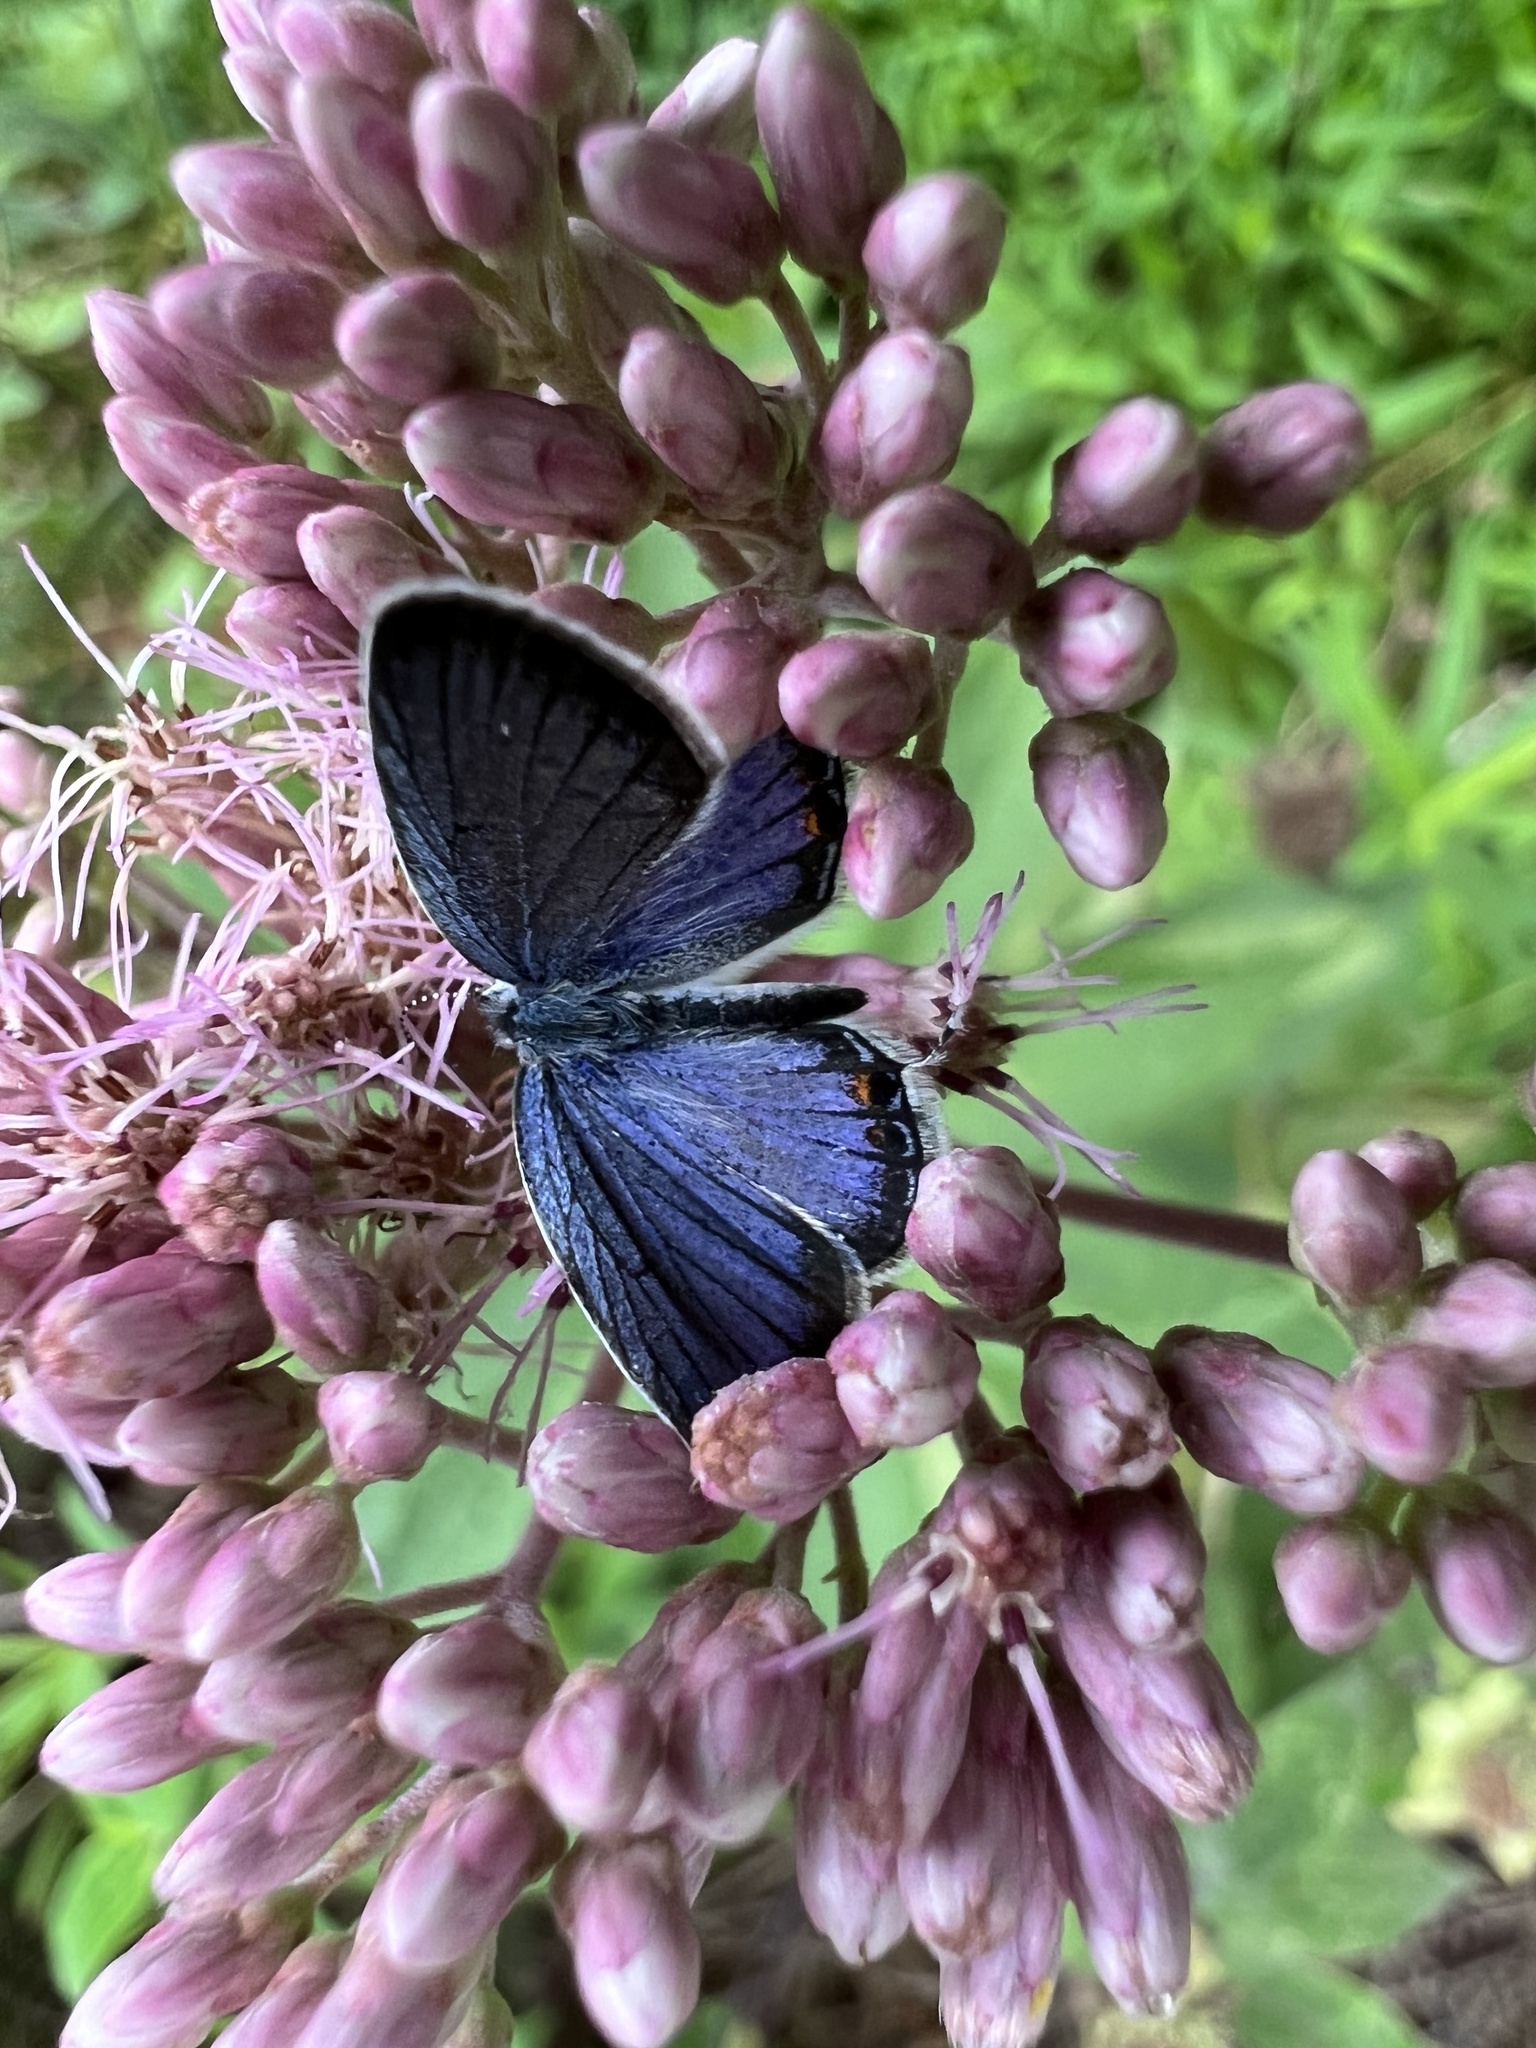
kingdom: Animalia
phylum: Arthropoda
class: Insecta
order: Lepidoptera
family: Lycaenidae
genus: Elkalyce
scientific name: Elkalyce comyntas
